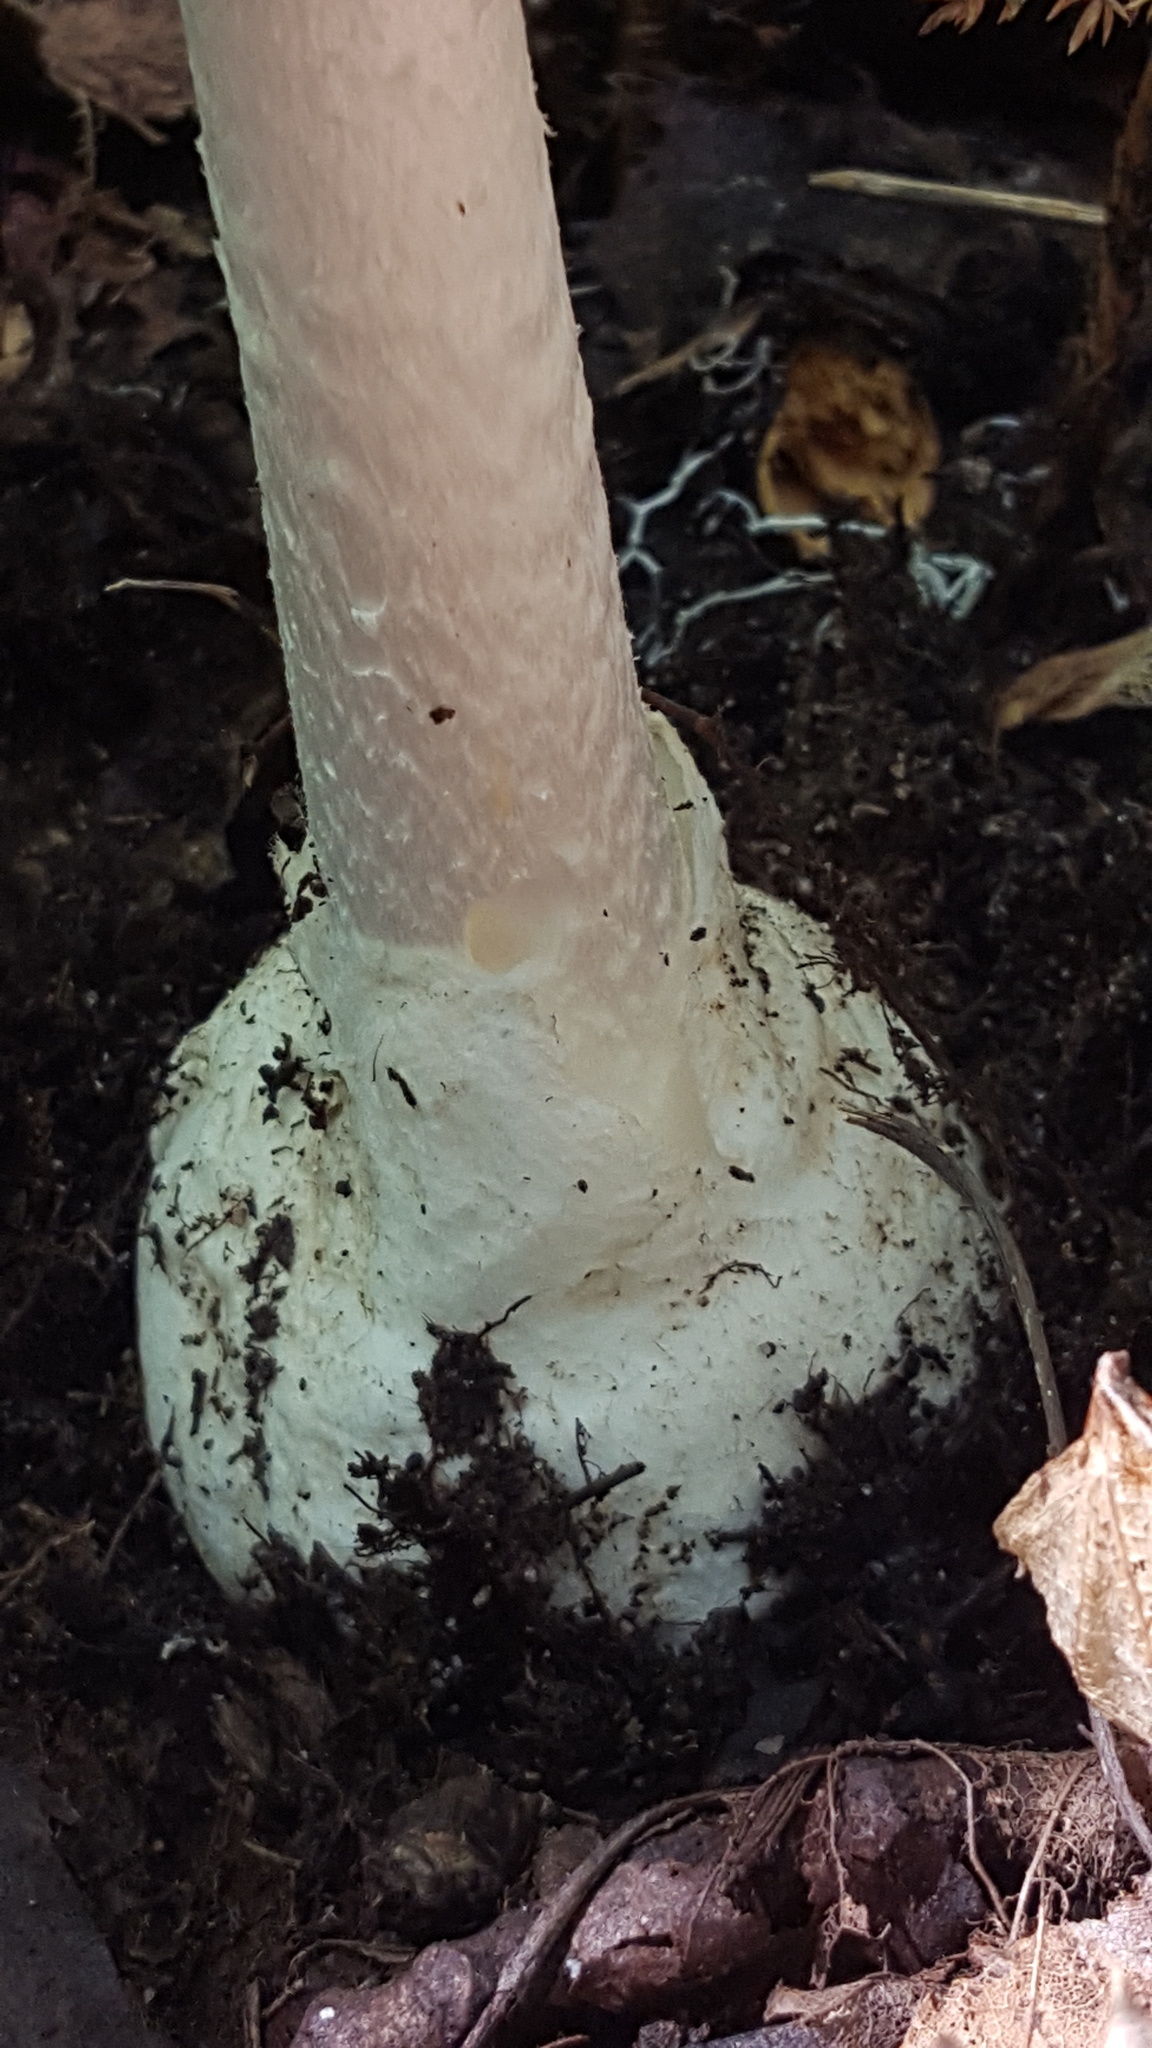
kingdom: Fungi
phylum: Basidiomycota
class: Agaricomycetes
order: Agaricales
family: Amanitaceae
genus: Amanita
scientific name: Amanita bisporigera
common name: Eastern north american destroying angel
